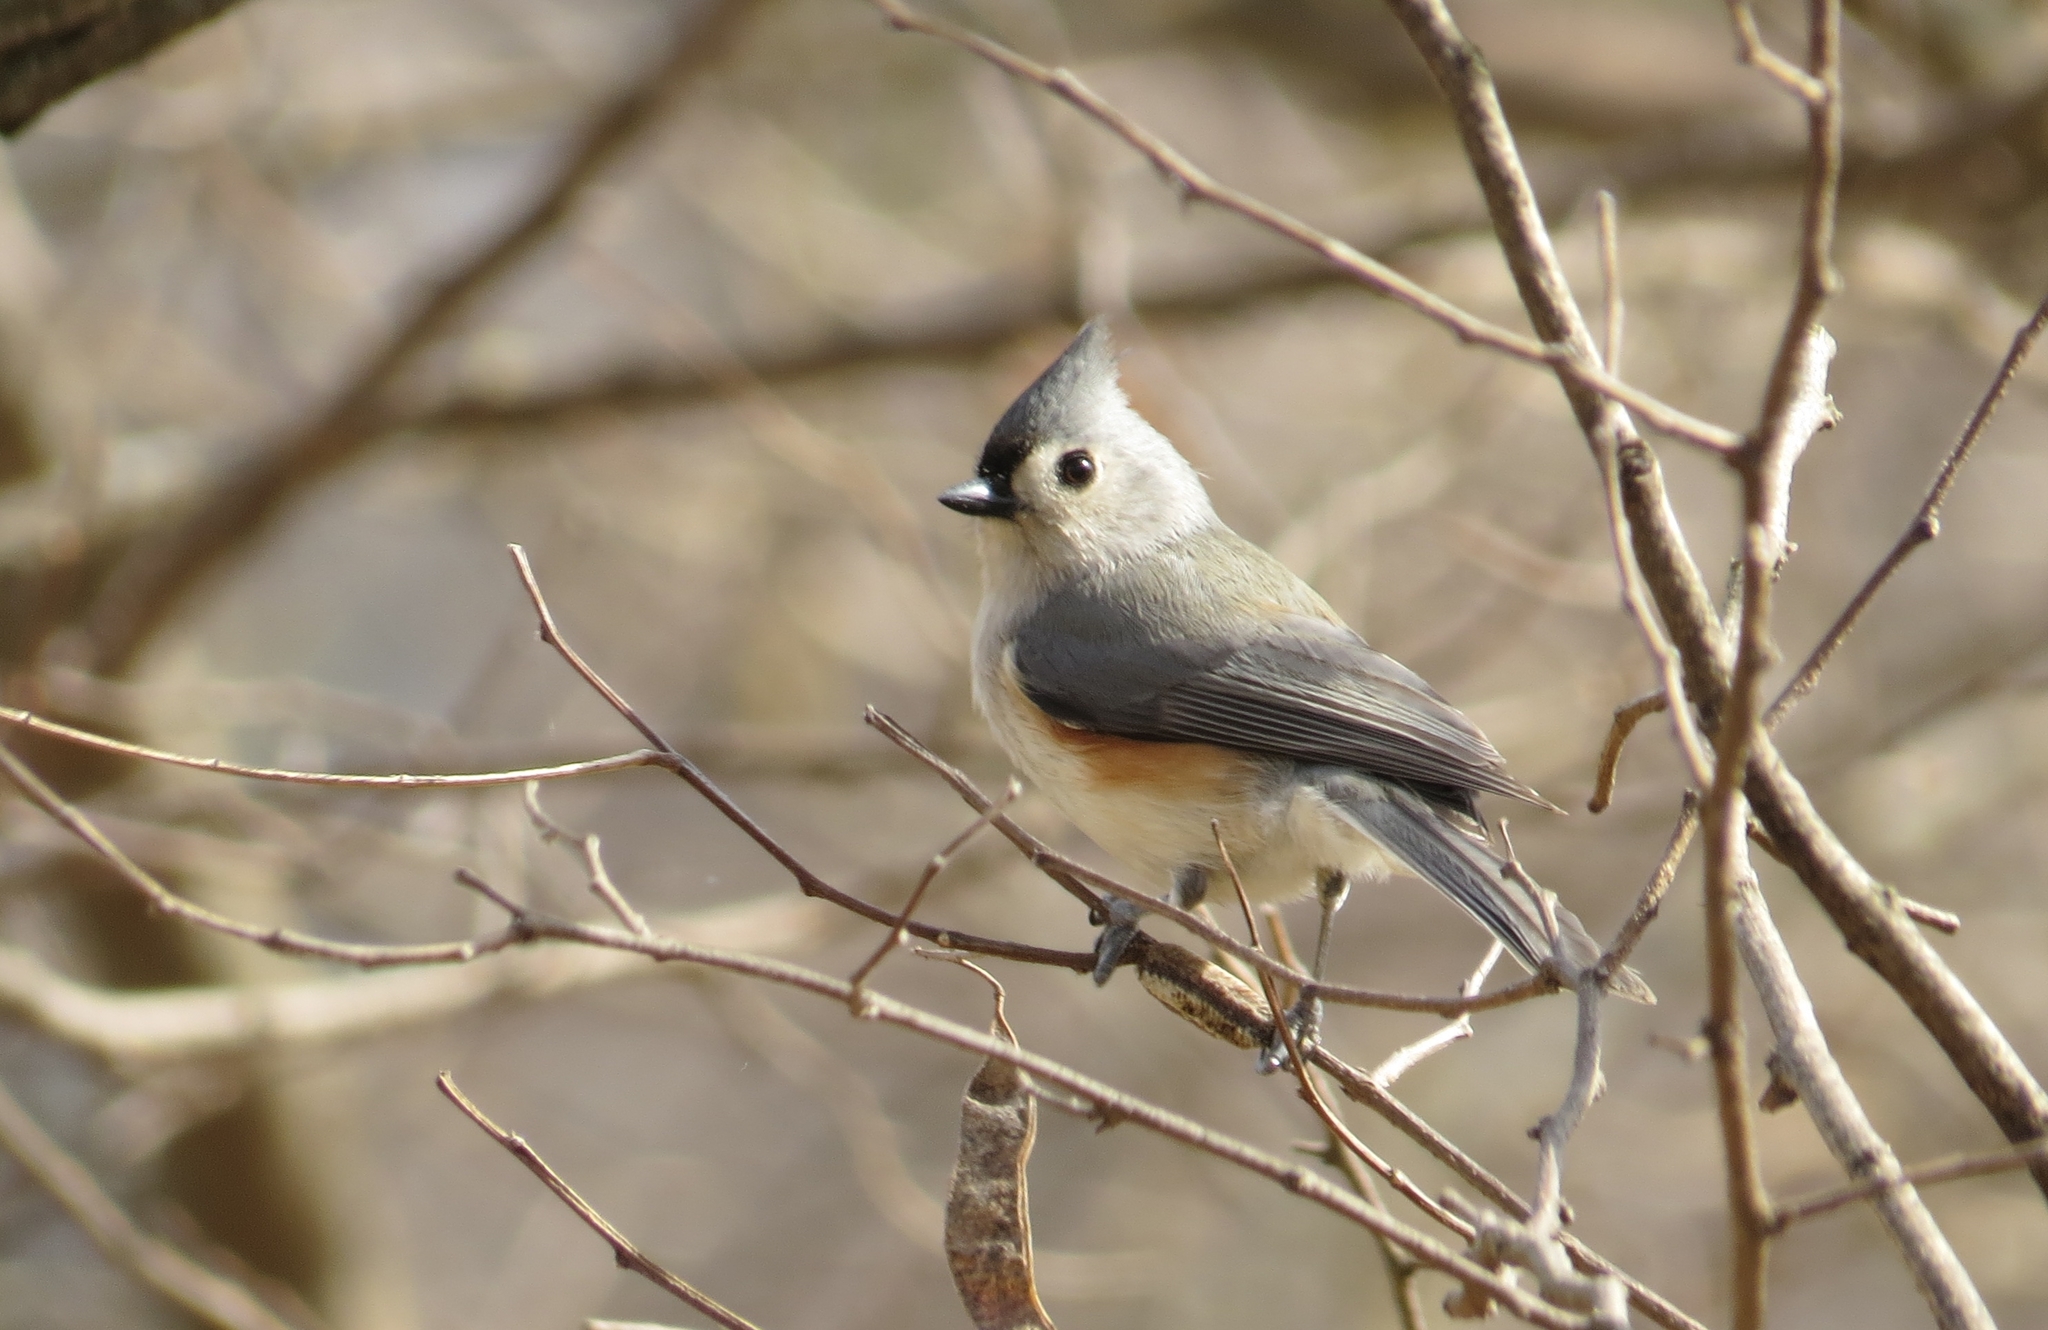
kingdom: Animalia
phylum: Chordata
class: Aves
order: Passeriformes
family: Paridae
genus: Baeolophus
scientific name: Baeolophus bicolor
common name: Tufted titmouse
